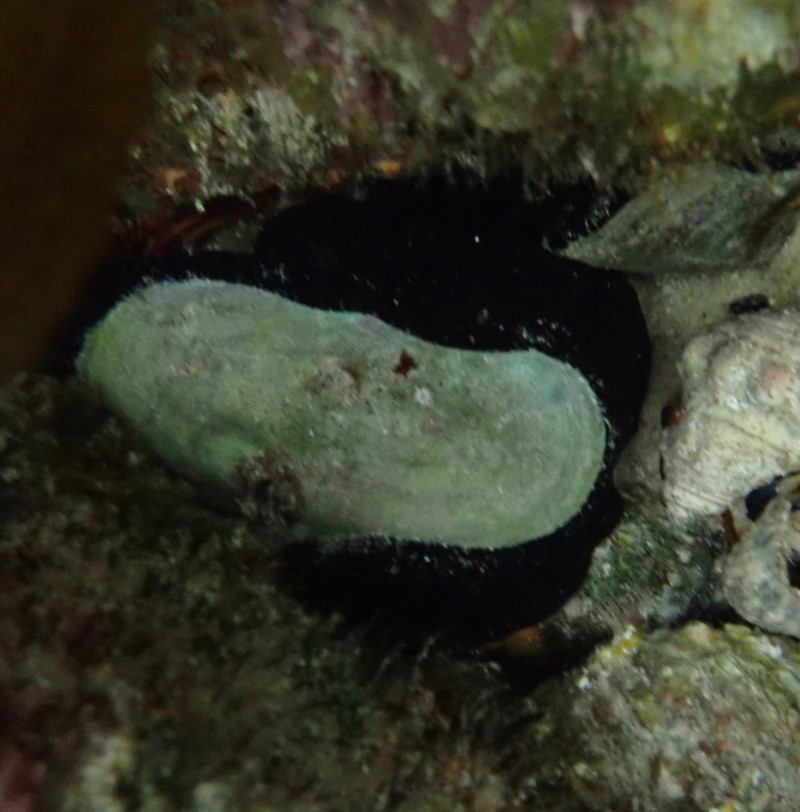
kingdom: Animalia
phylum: Mollusca
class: Gastropoda
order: Lepetellida
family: Fissurellidae
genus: Scutus
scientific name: Scutus antipodes
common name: Duckbill shell
